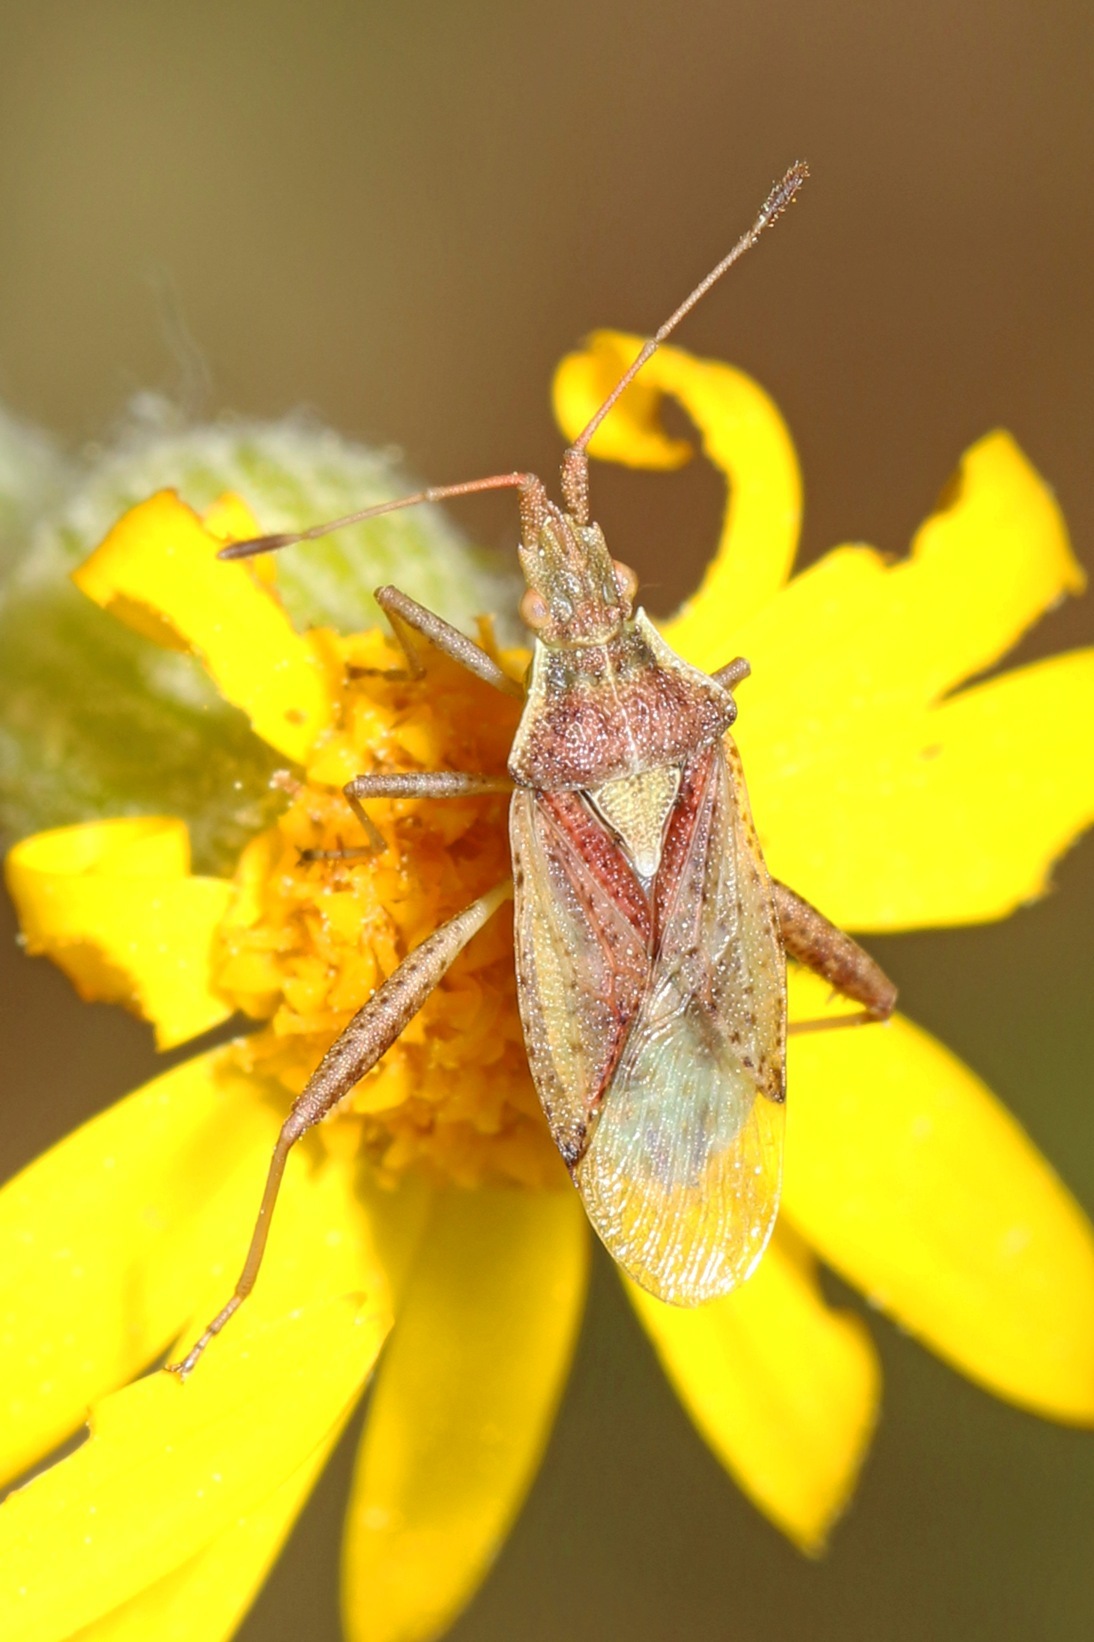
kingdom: Animalia
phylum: Arthropoda
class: Insecta
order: Hemiptera
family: Rhopalidae
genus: Harmostes
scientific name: Harmostes reflexulus
